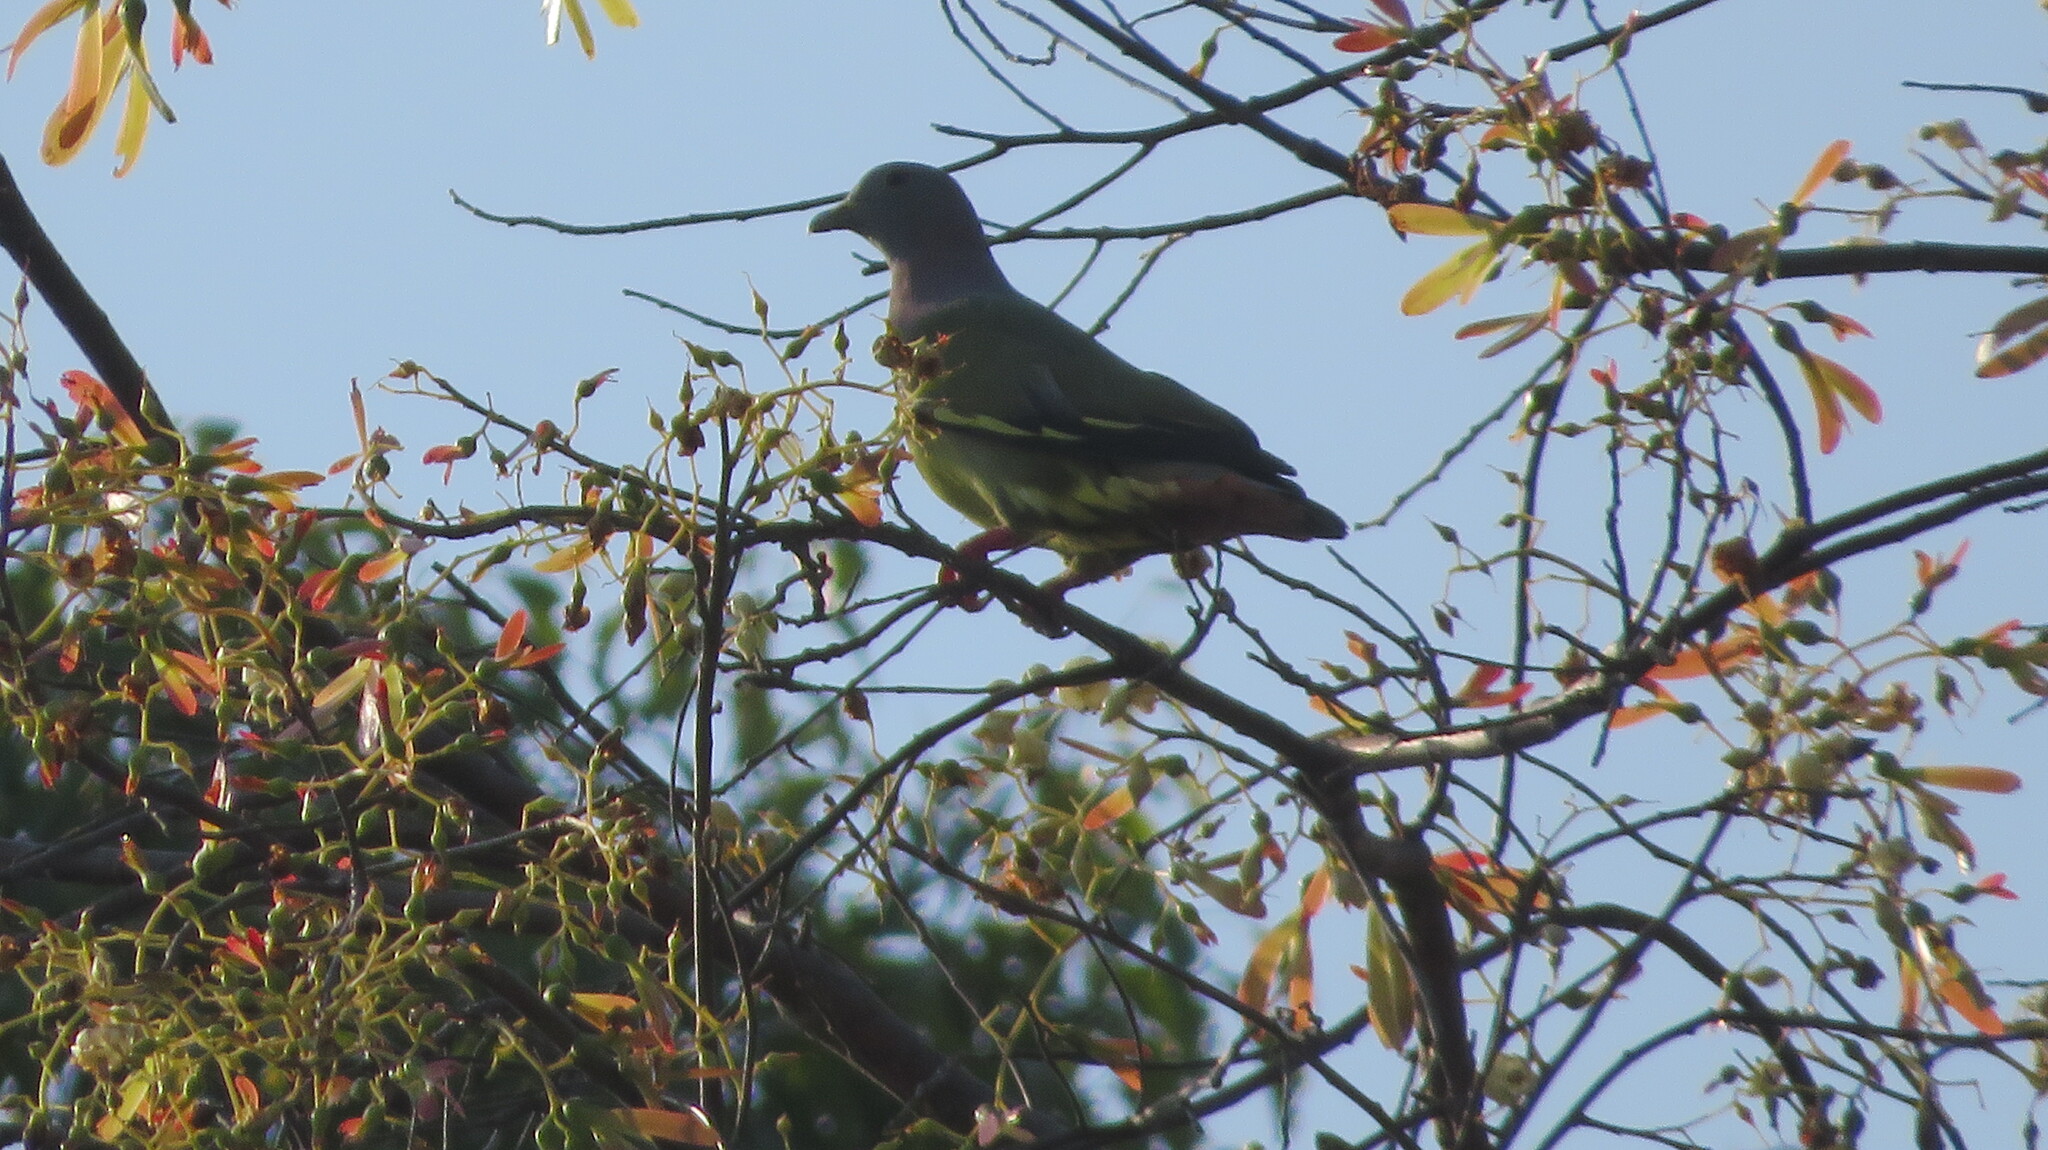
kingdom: Animalia
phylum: Chordata
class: Aves
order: Columbiformes
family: Columbidae
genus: Treron
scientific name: Treron vernans
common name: Pink-necked green pigeon
